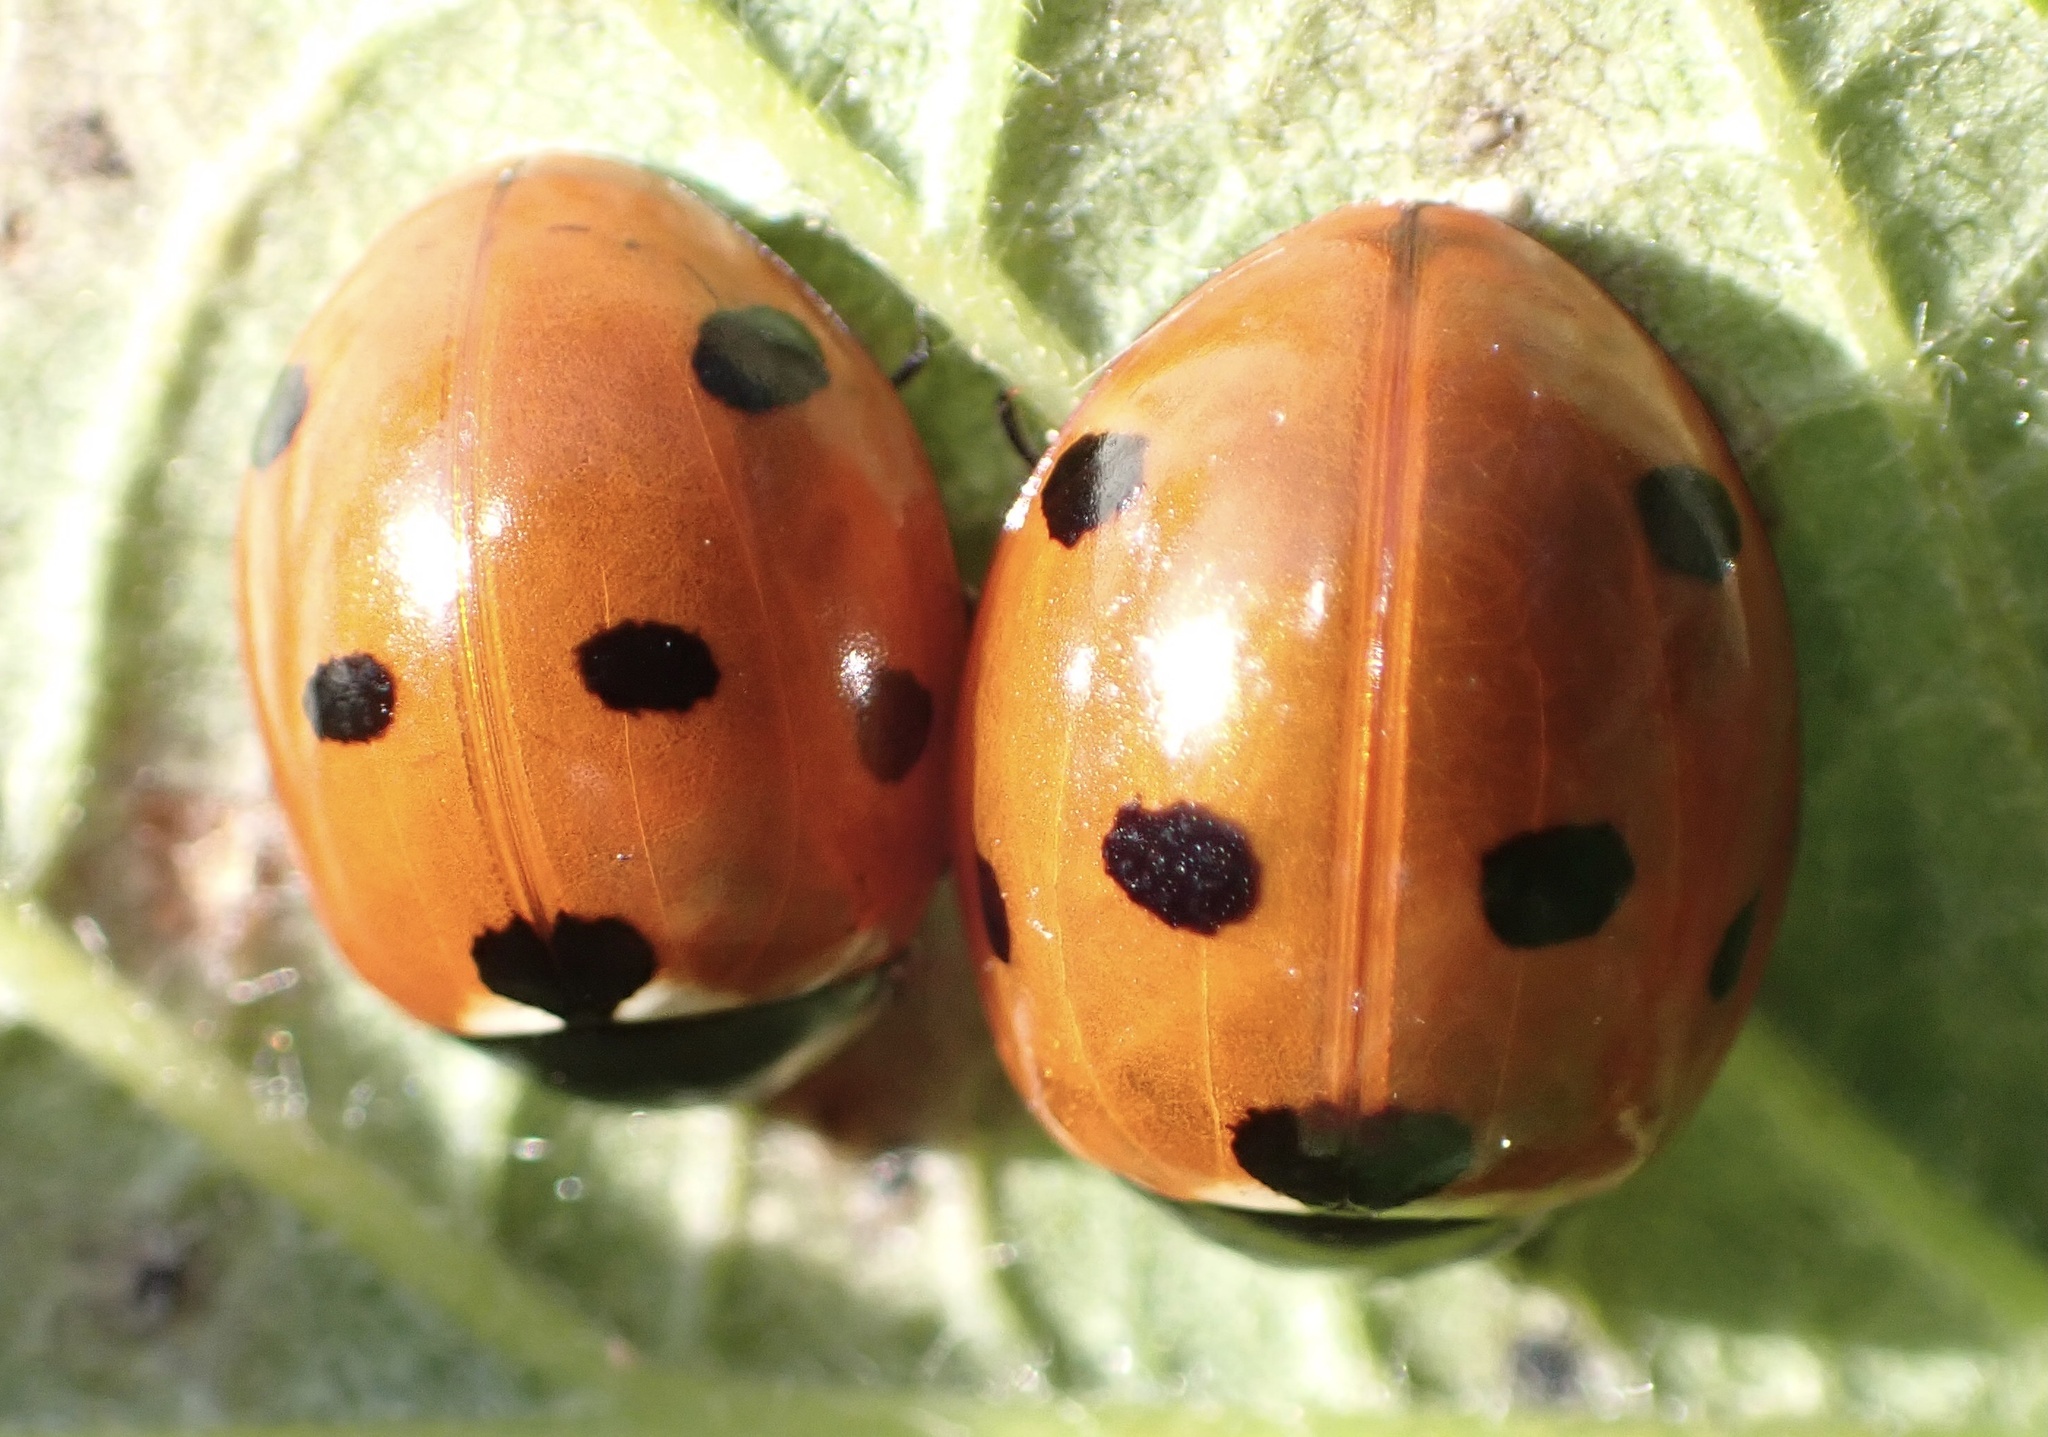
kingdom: Animalia
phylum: Arthropoda
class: Insecta
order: Coleoptera
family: Coccinellidae
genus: Coccinella
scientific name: Coccinella septempunctata
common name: Sevenspotted lady beetle
